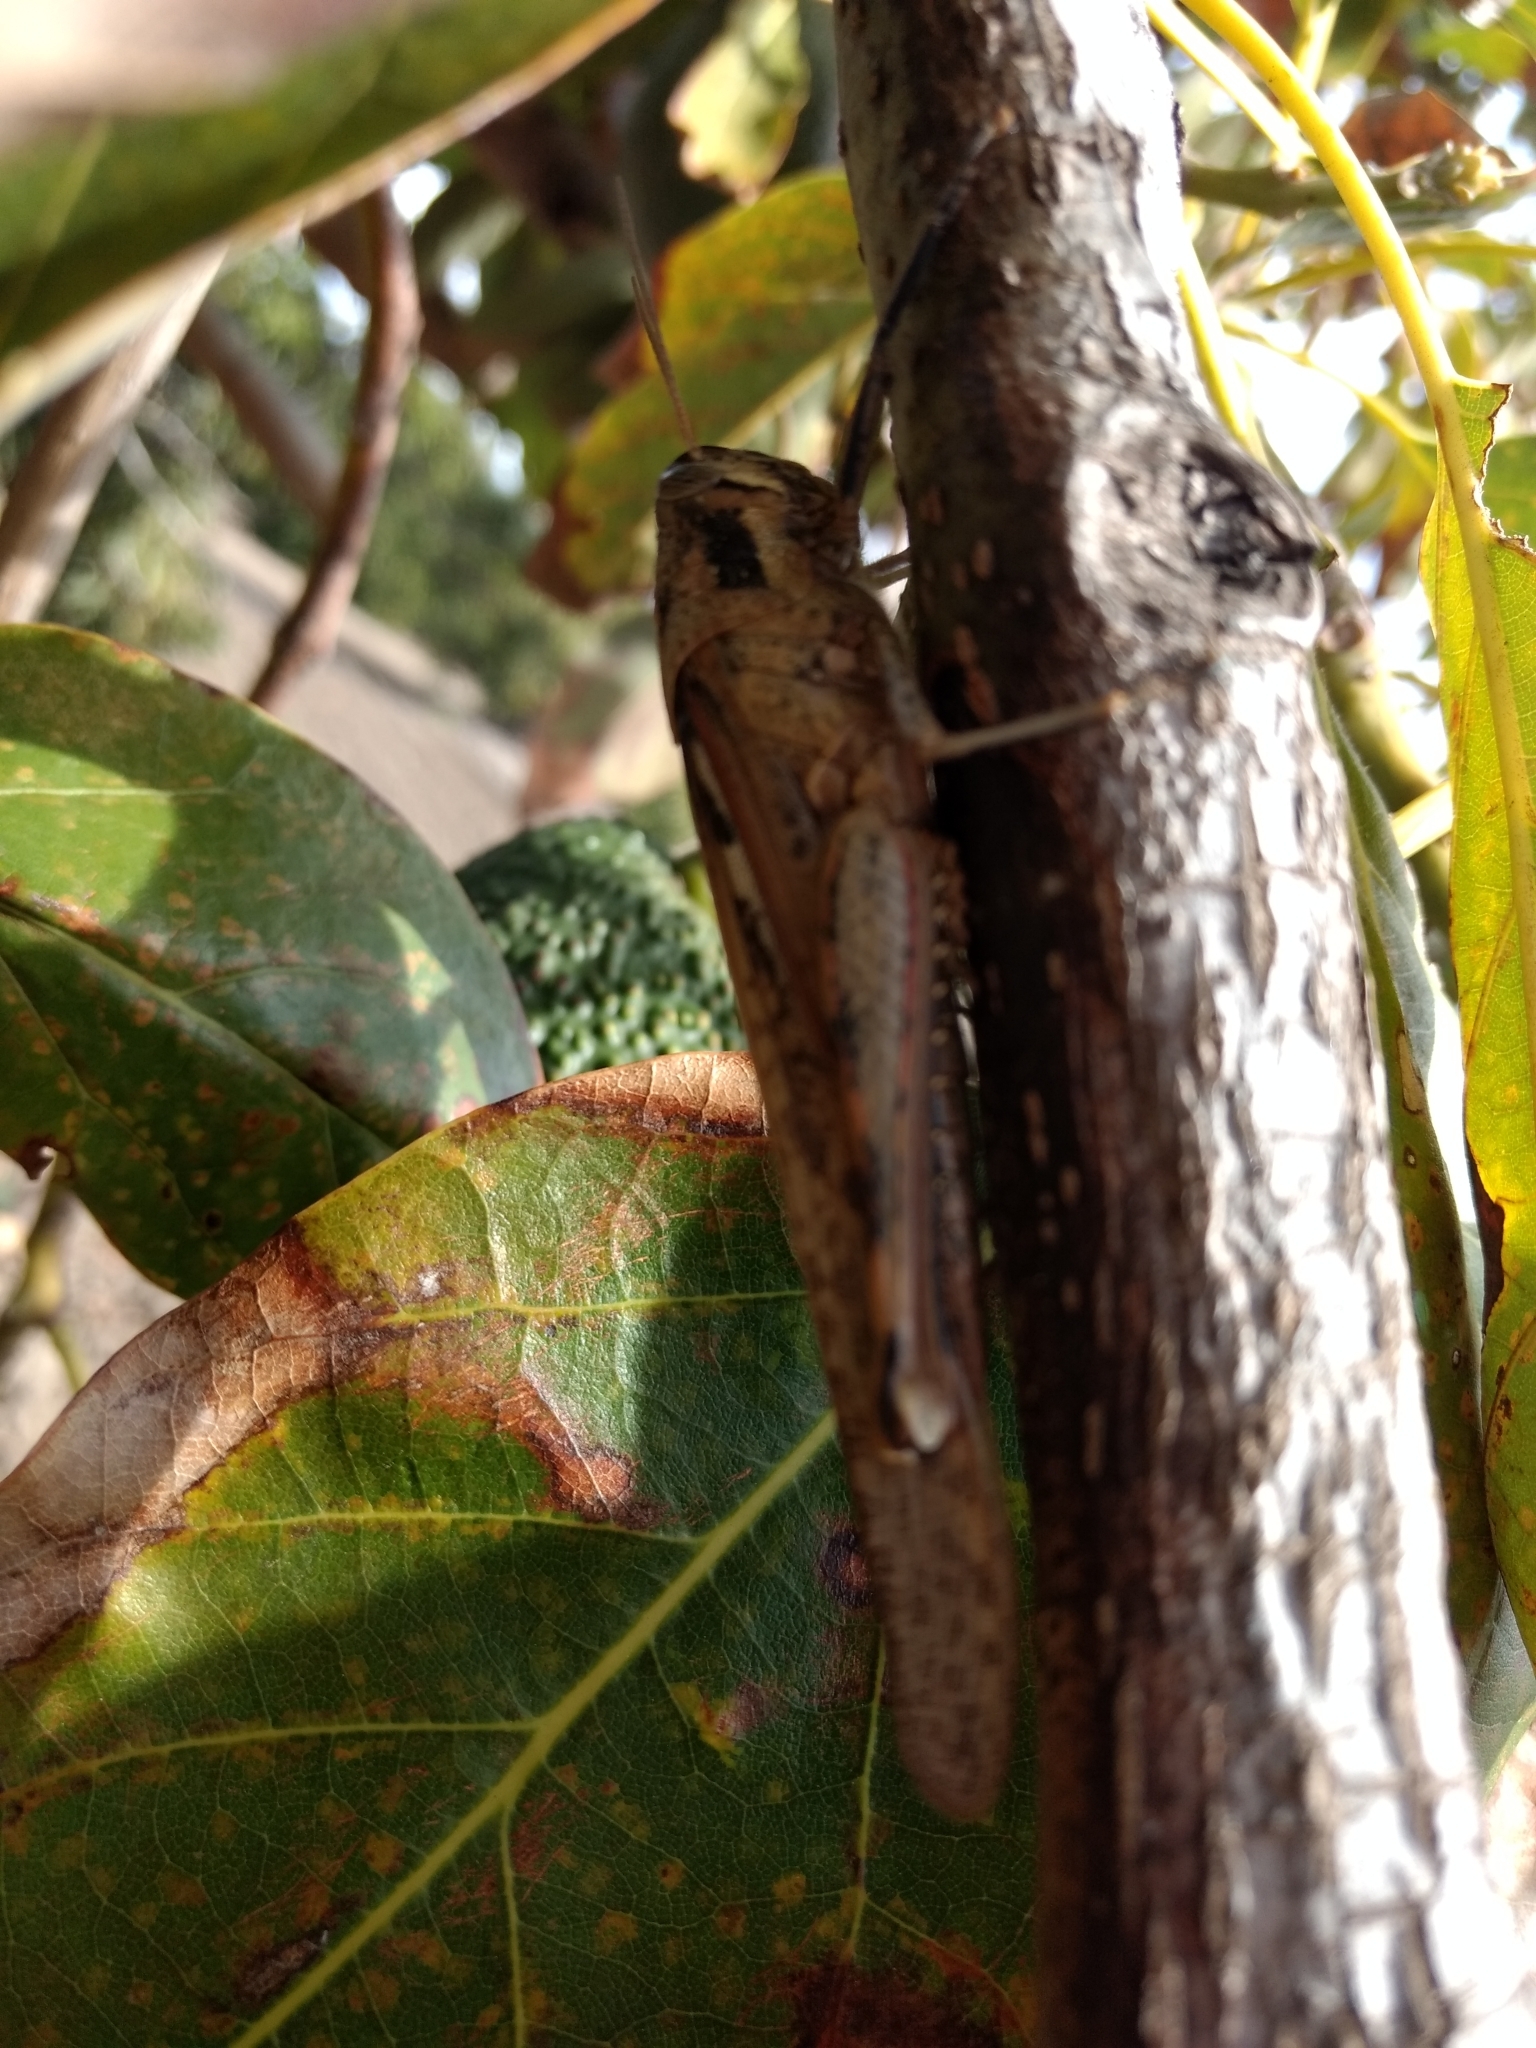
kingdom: Animalia
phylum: Arthropoda
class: Insecta
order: Orthoptera
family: Acrididae
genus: Schistocerca
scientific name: Schistocerca nitens
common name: Vagrant grasshopper
